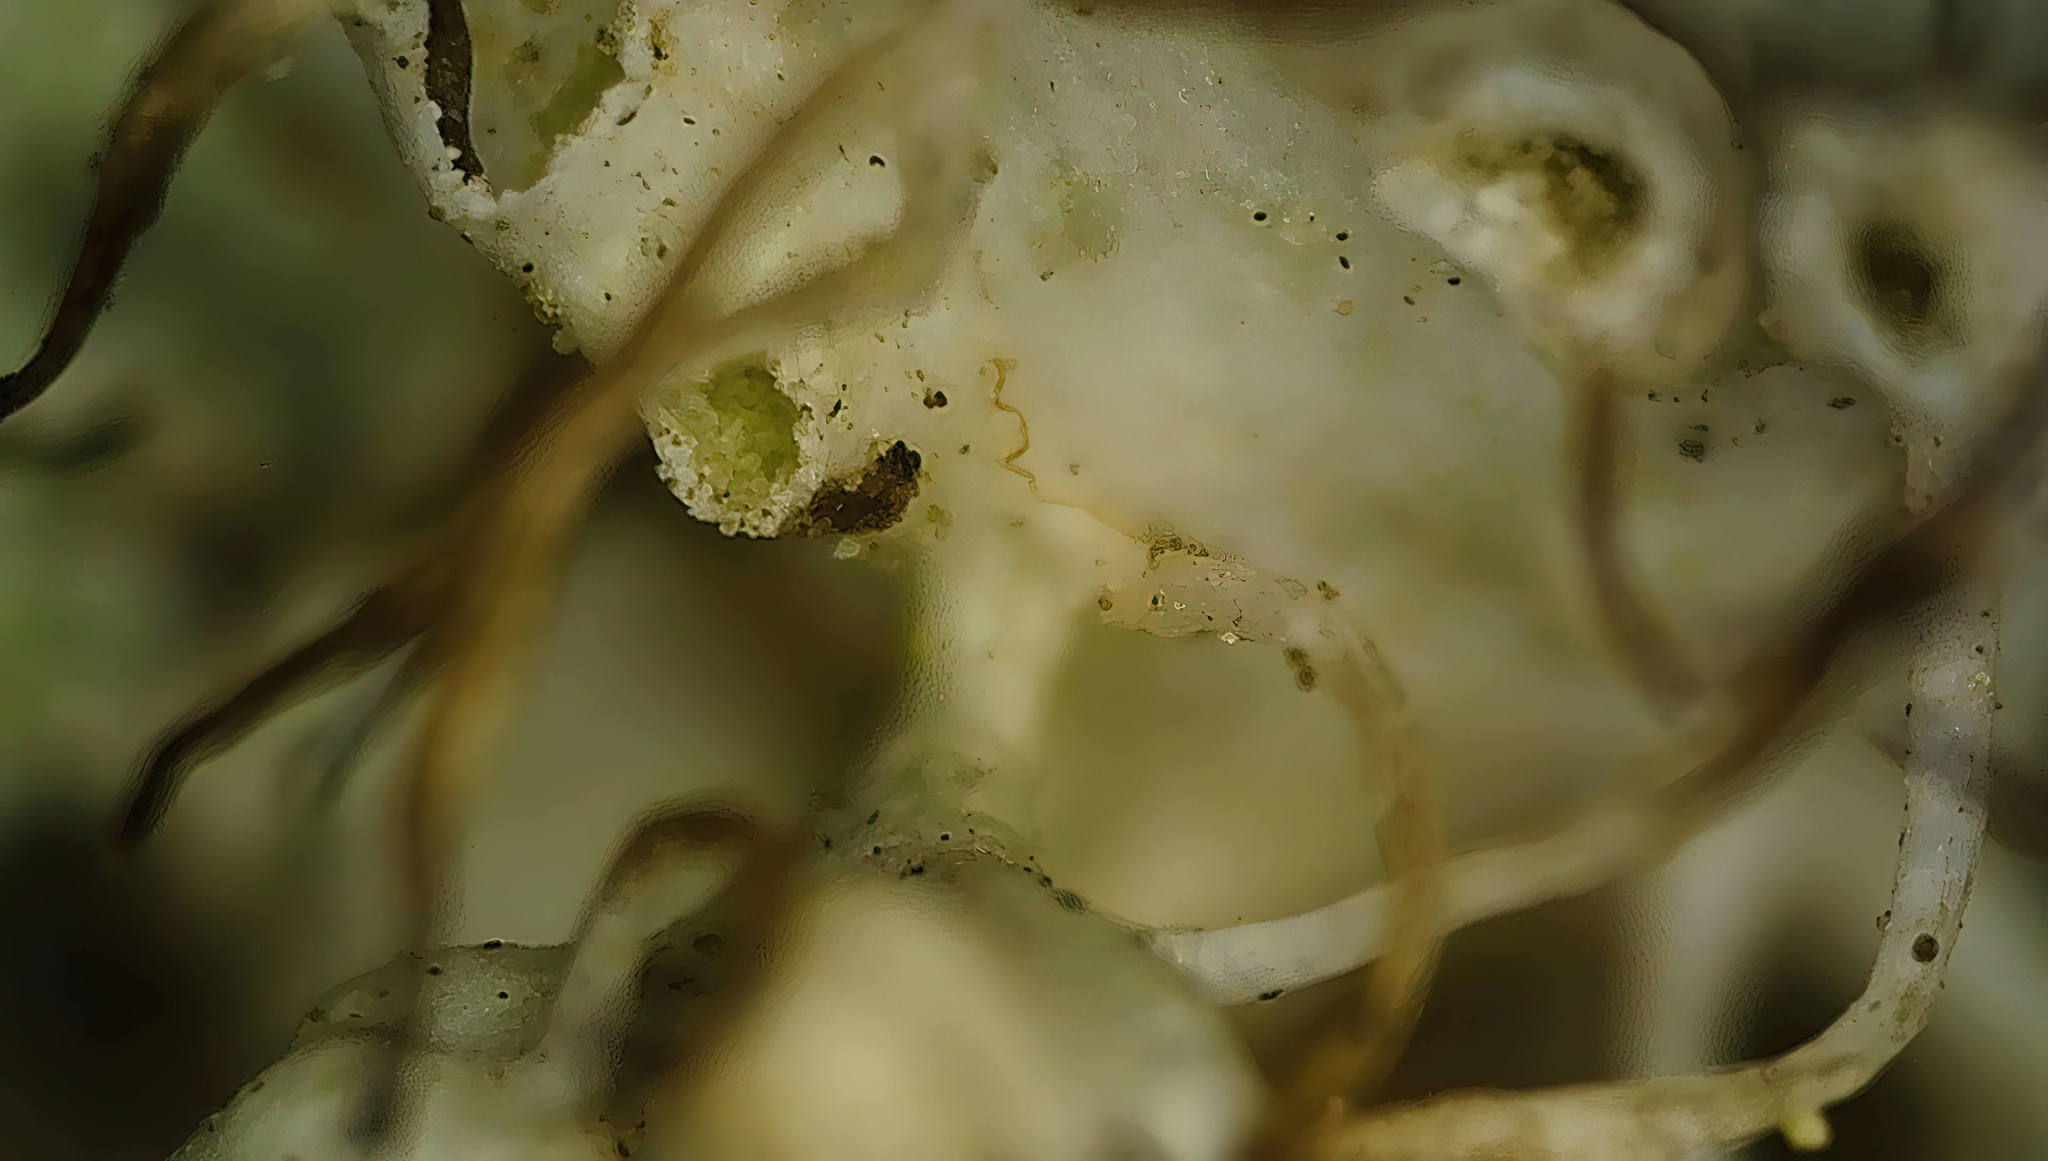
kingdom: Fungi
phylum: Ascomycota
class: Lecanoromycetes
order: Caliciales
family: Physciaceae
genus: Physcia
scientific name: Physcia adscendens
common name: Hooded rosette lichen
